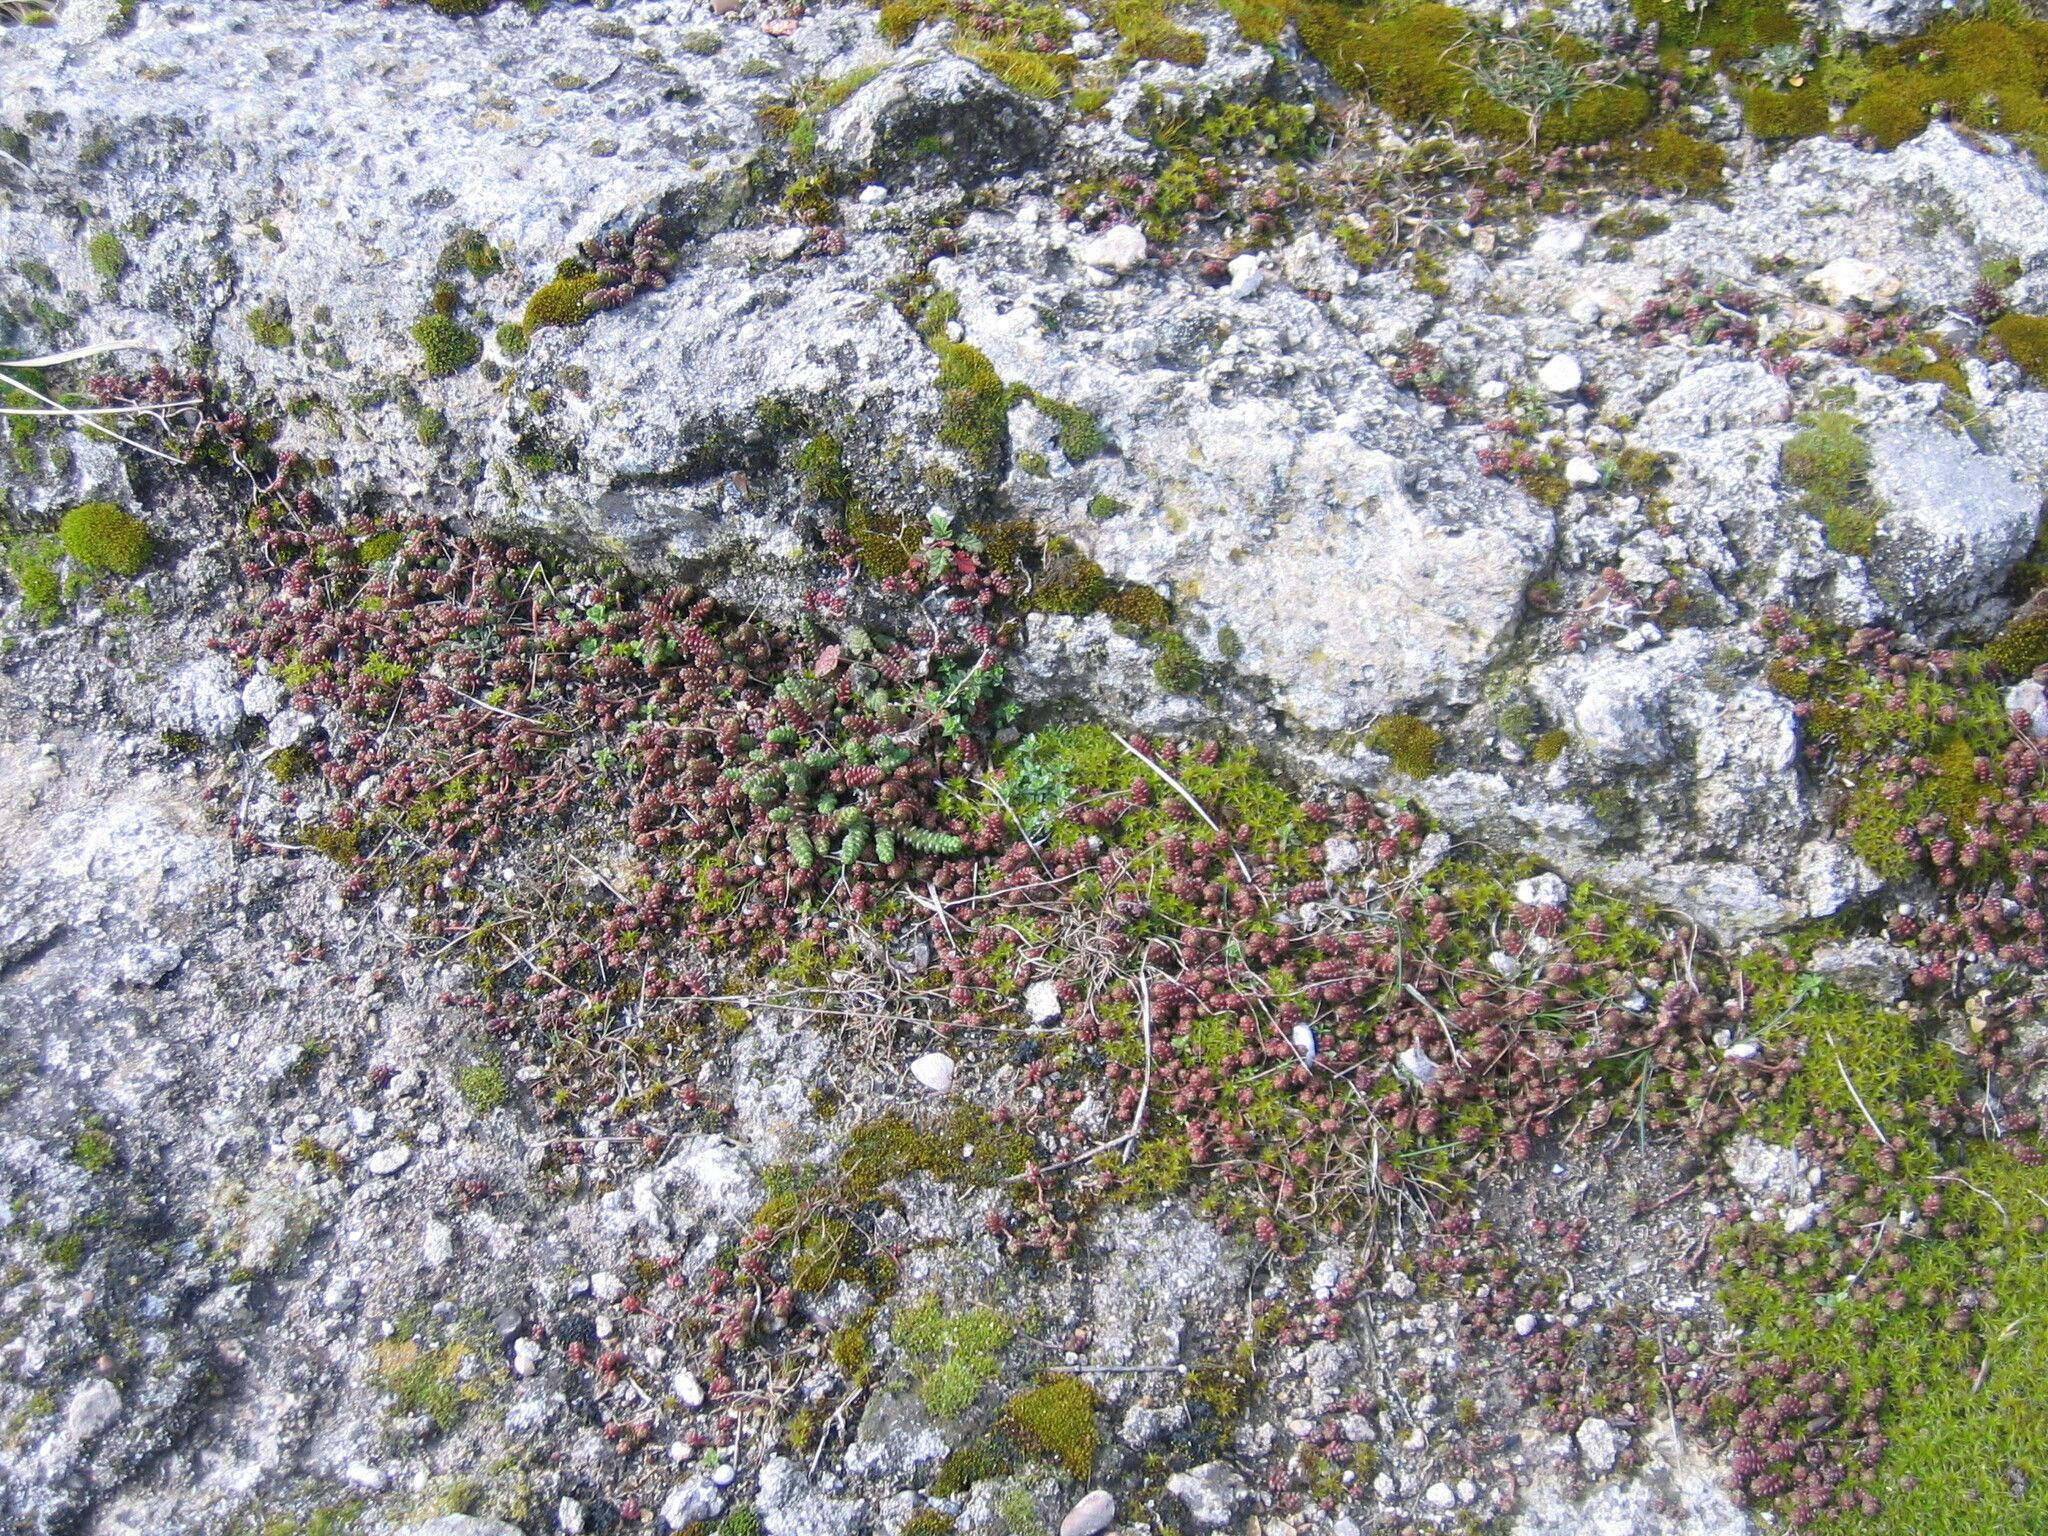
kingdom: Plantae
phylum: Tracheophyta
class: Magnoliopsida
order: Saxifragales
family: Crassulaceae
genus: Sedum
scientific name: Sedum acre
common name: Biting stonecrop
